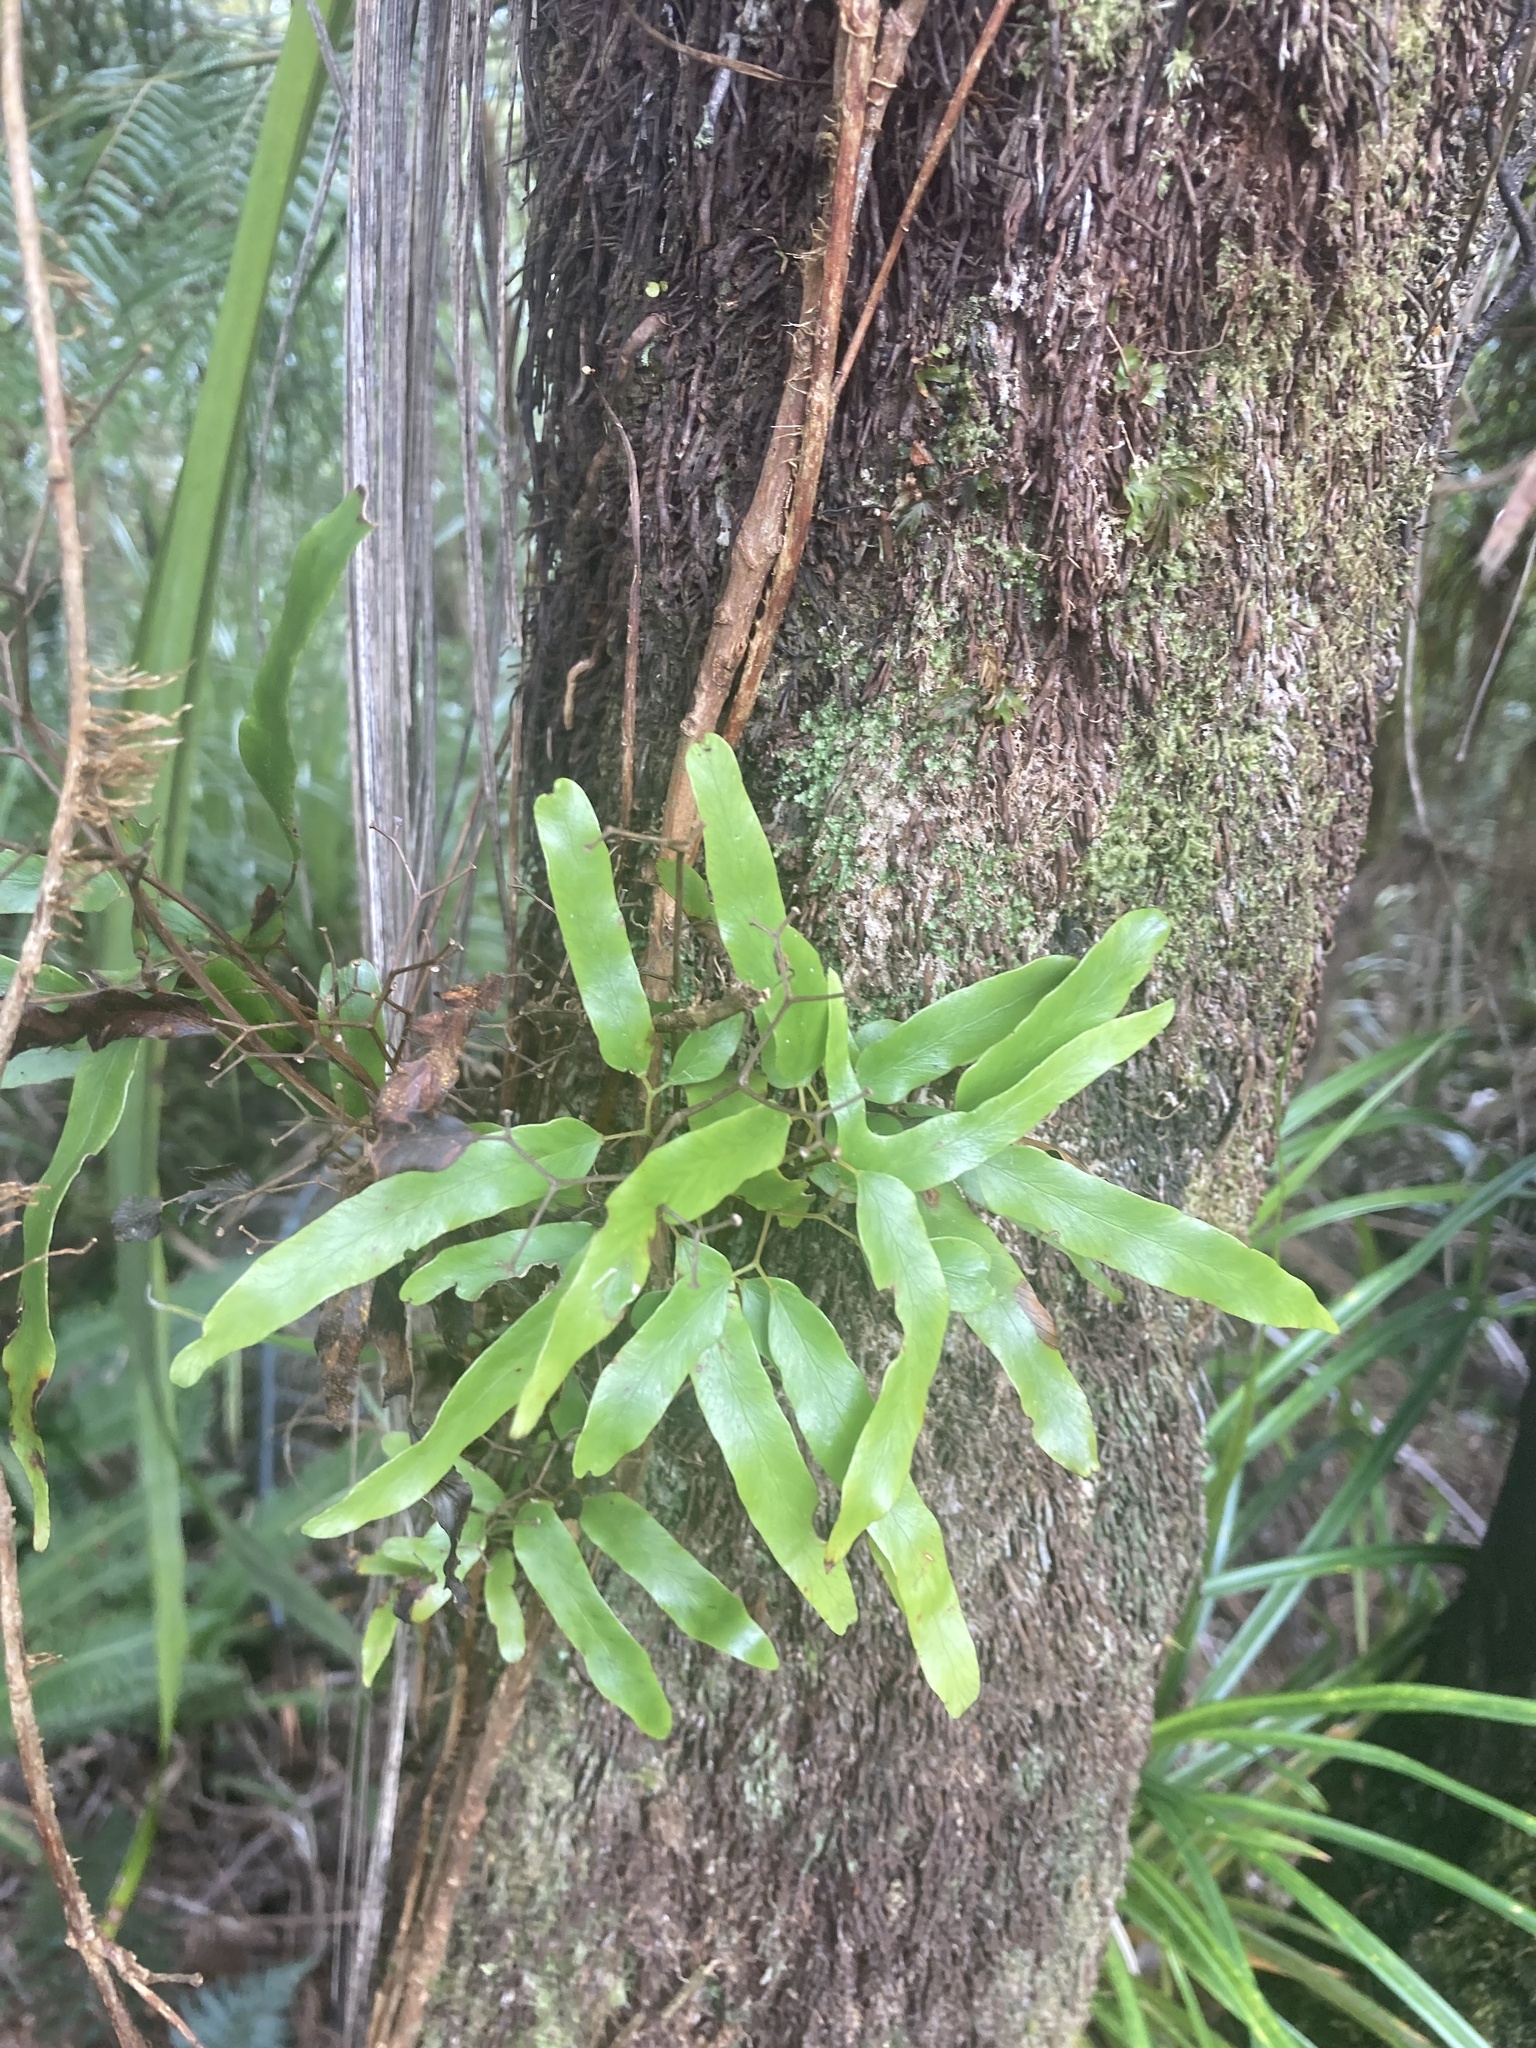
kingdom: Plantae
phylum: Tracheophyta
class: Polypodiopsida
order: Schizaeales
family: Lygodiaceae
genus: Lygodium
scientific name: Lygodium articulatum
